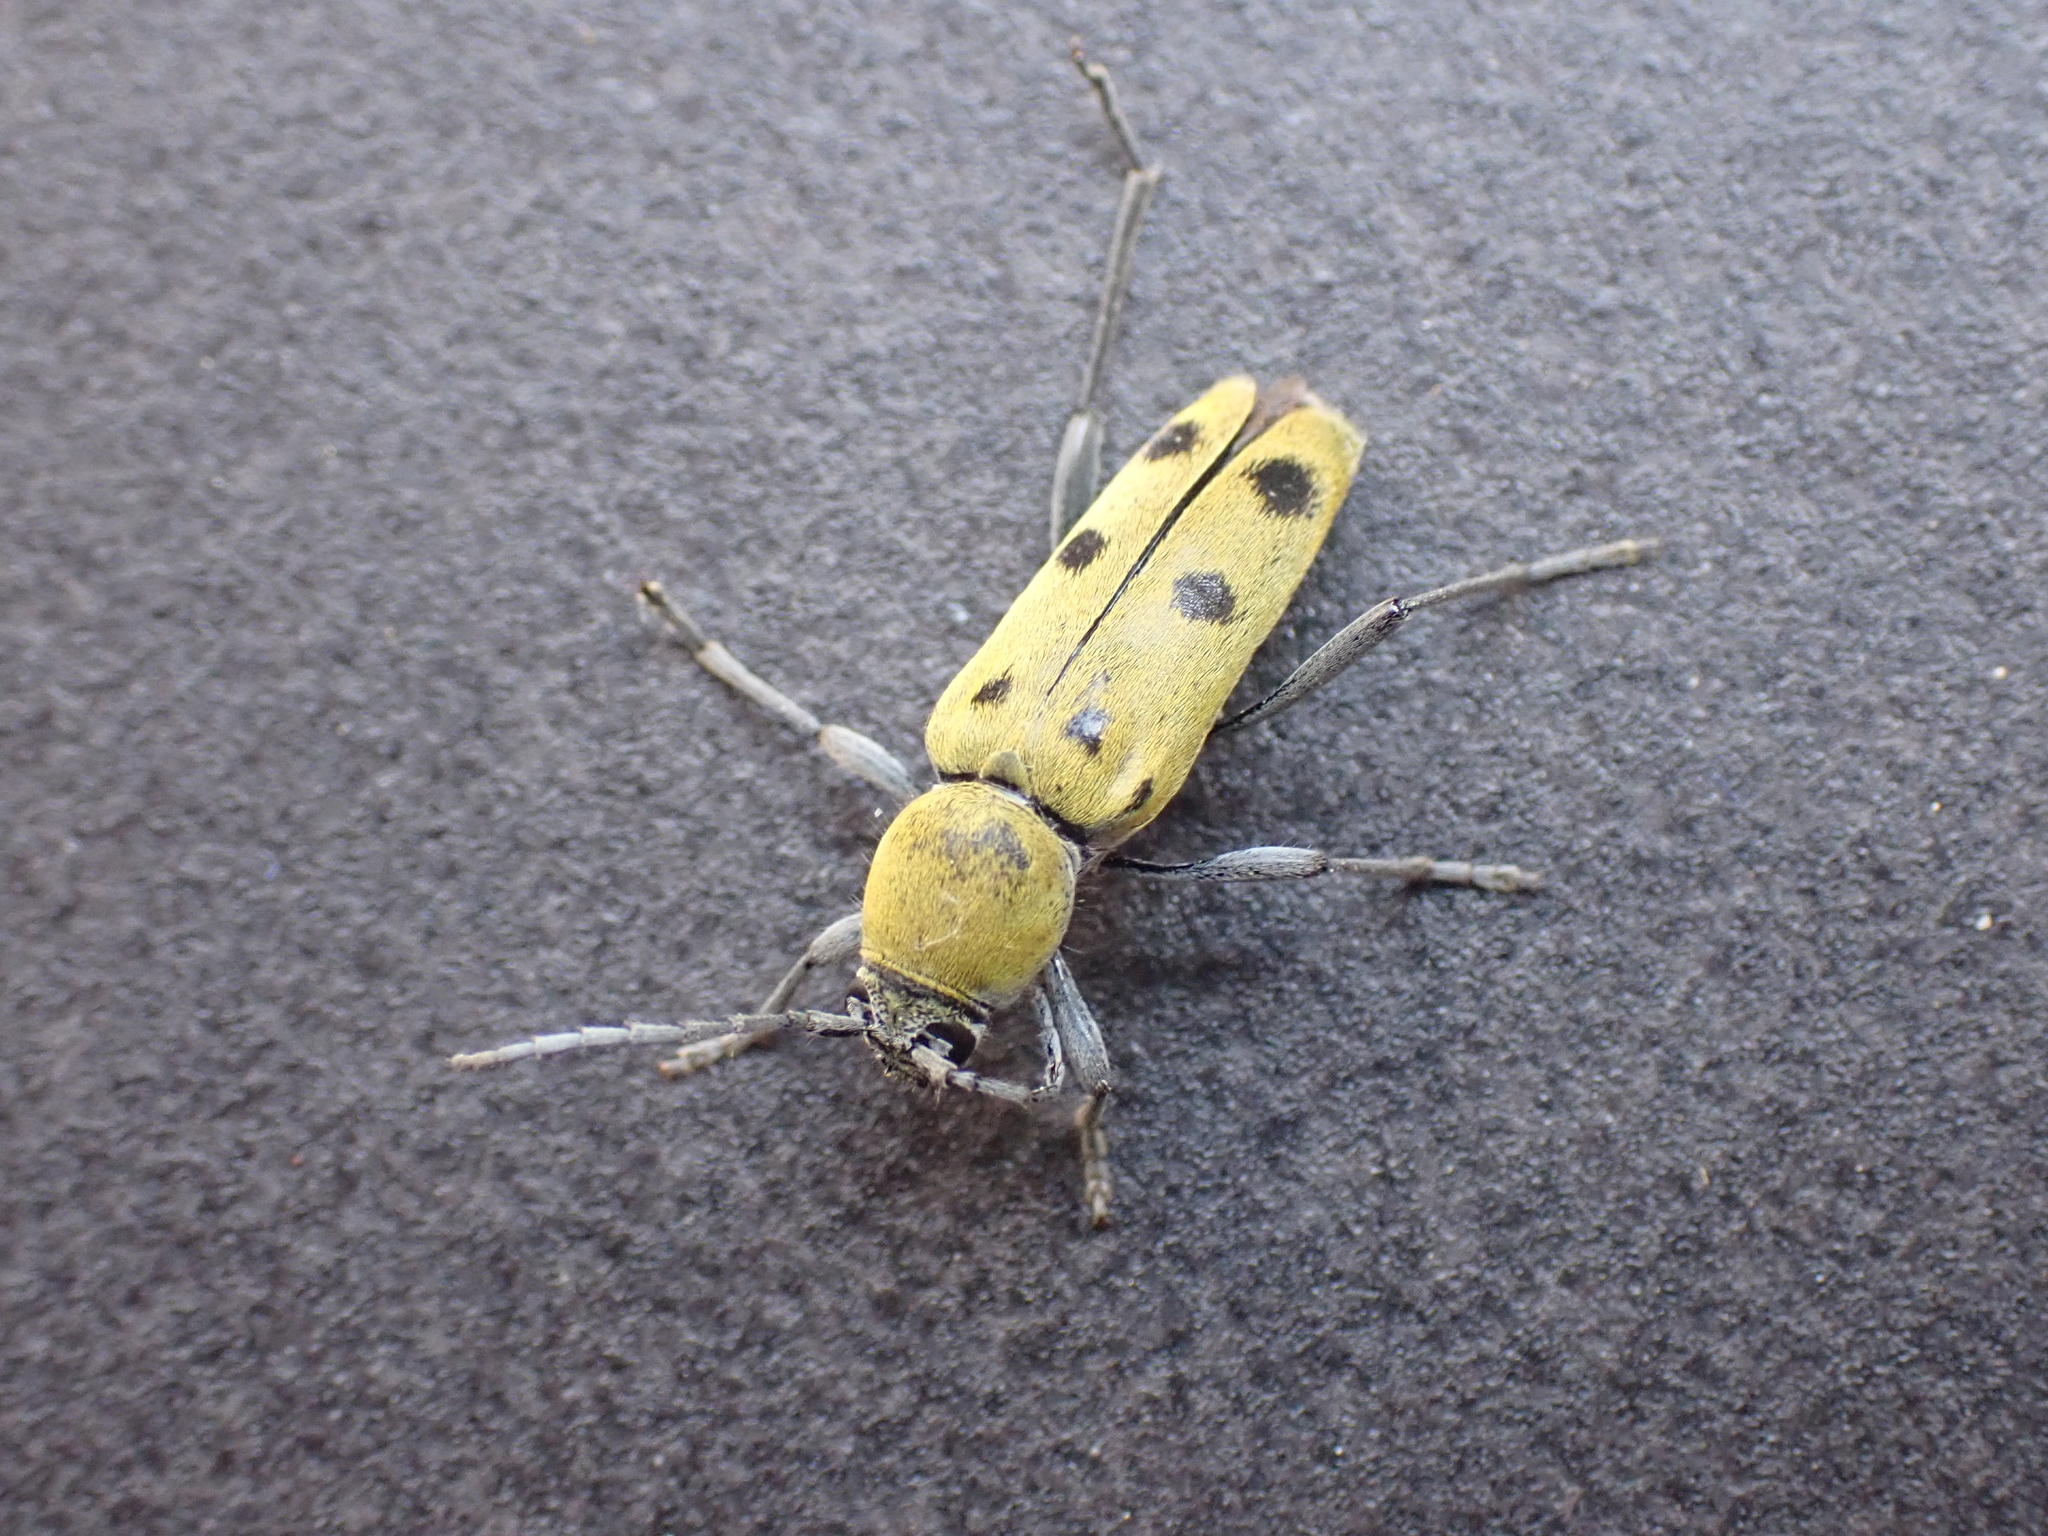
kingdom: Animalia
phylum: Arthropoda
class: Insecta
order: Coleoptera
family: Cerambycidae
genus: Chlorophorus
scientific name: Chlorophorus glabromaculatus
